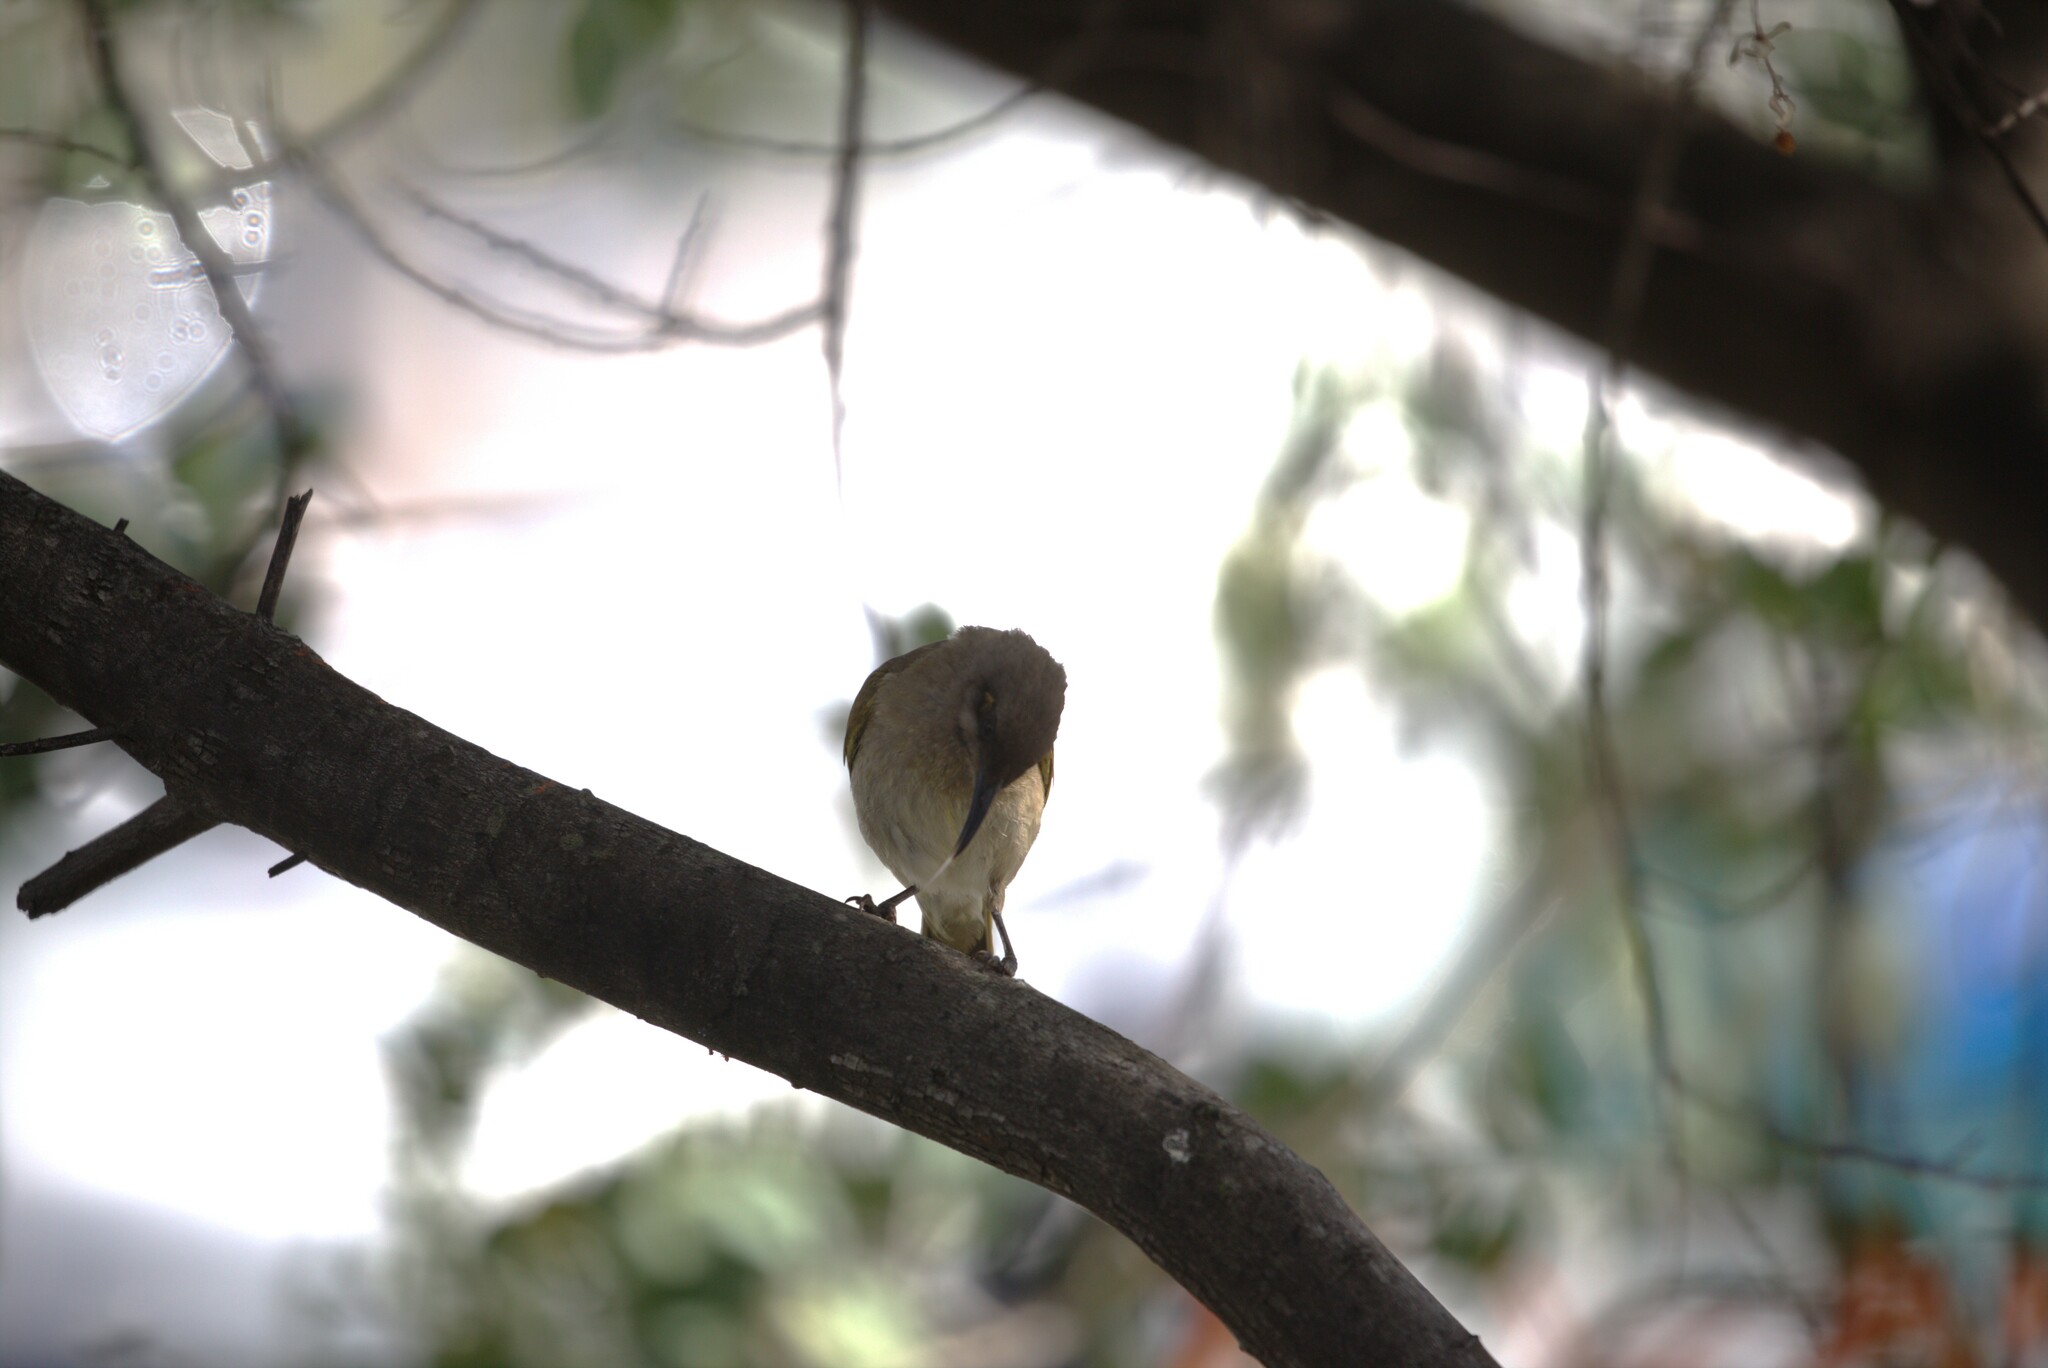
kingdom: Animalia
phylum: Chordata
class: Aves
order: Passeriformes
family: Meliphagidae
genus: Lichmera
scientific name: Lichmera indistincta
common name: Brown honeyeater
